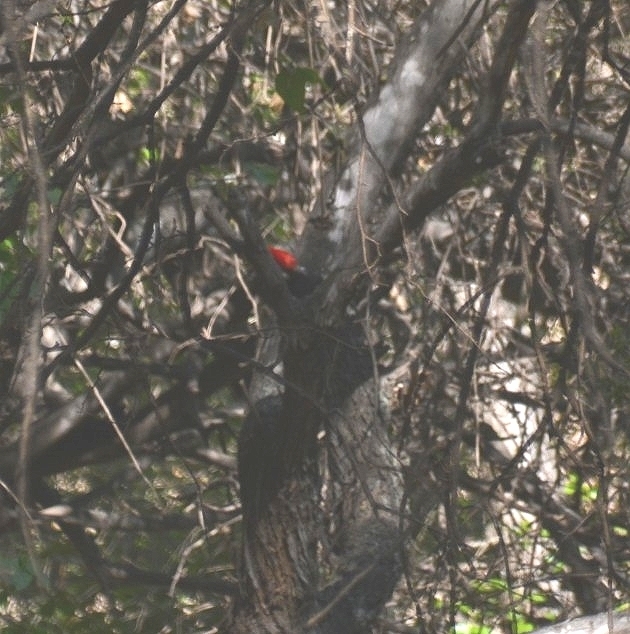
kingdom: Animalia
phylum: Chordata
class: Aves
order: Piciformes
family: Picidae
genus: Dryocopus
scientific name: Dryocopus schulzii
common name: Black-bodied woodpecker
